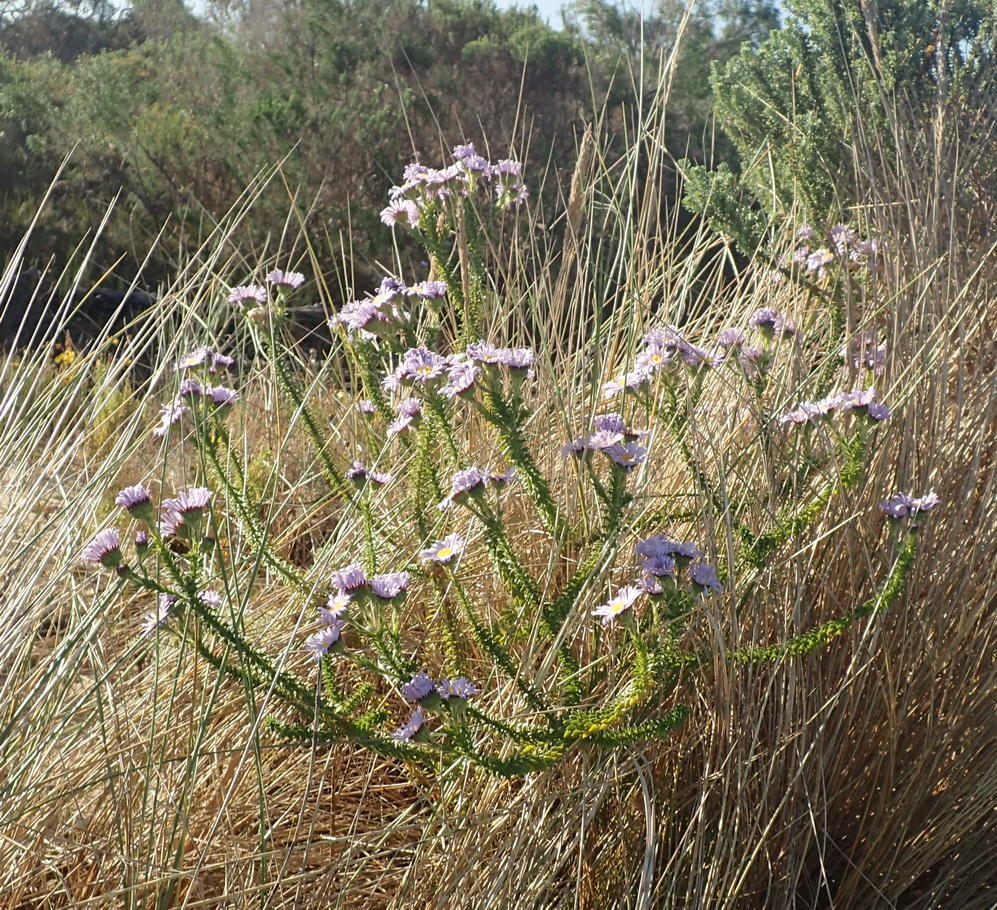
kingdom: Plantae
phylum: Tracheophyta
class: Magnoliopsida
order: Asterales
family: Asteraceae
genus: Felicia
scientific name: Felicia echinata
